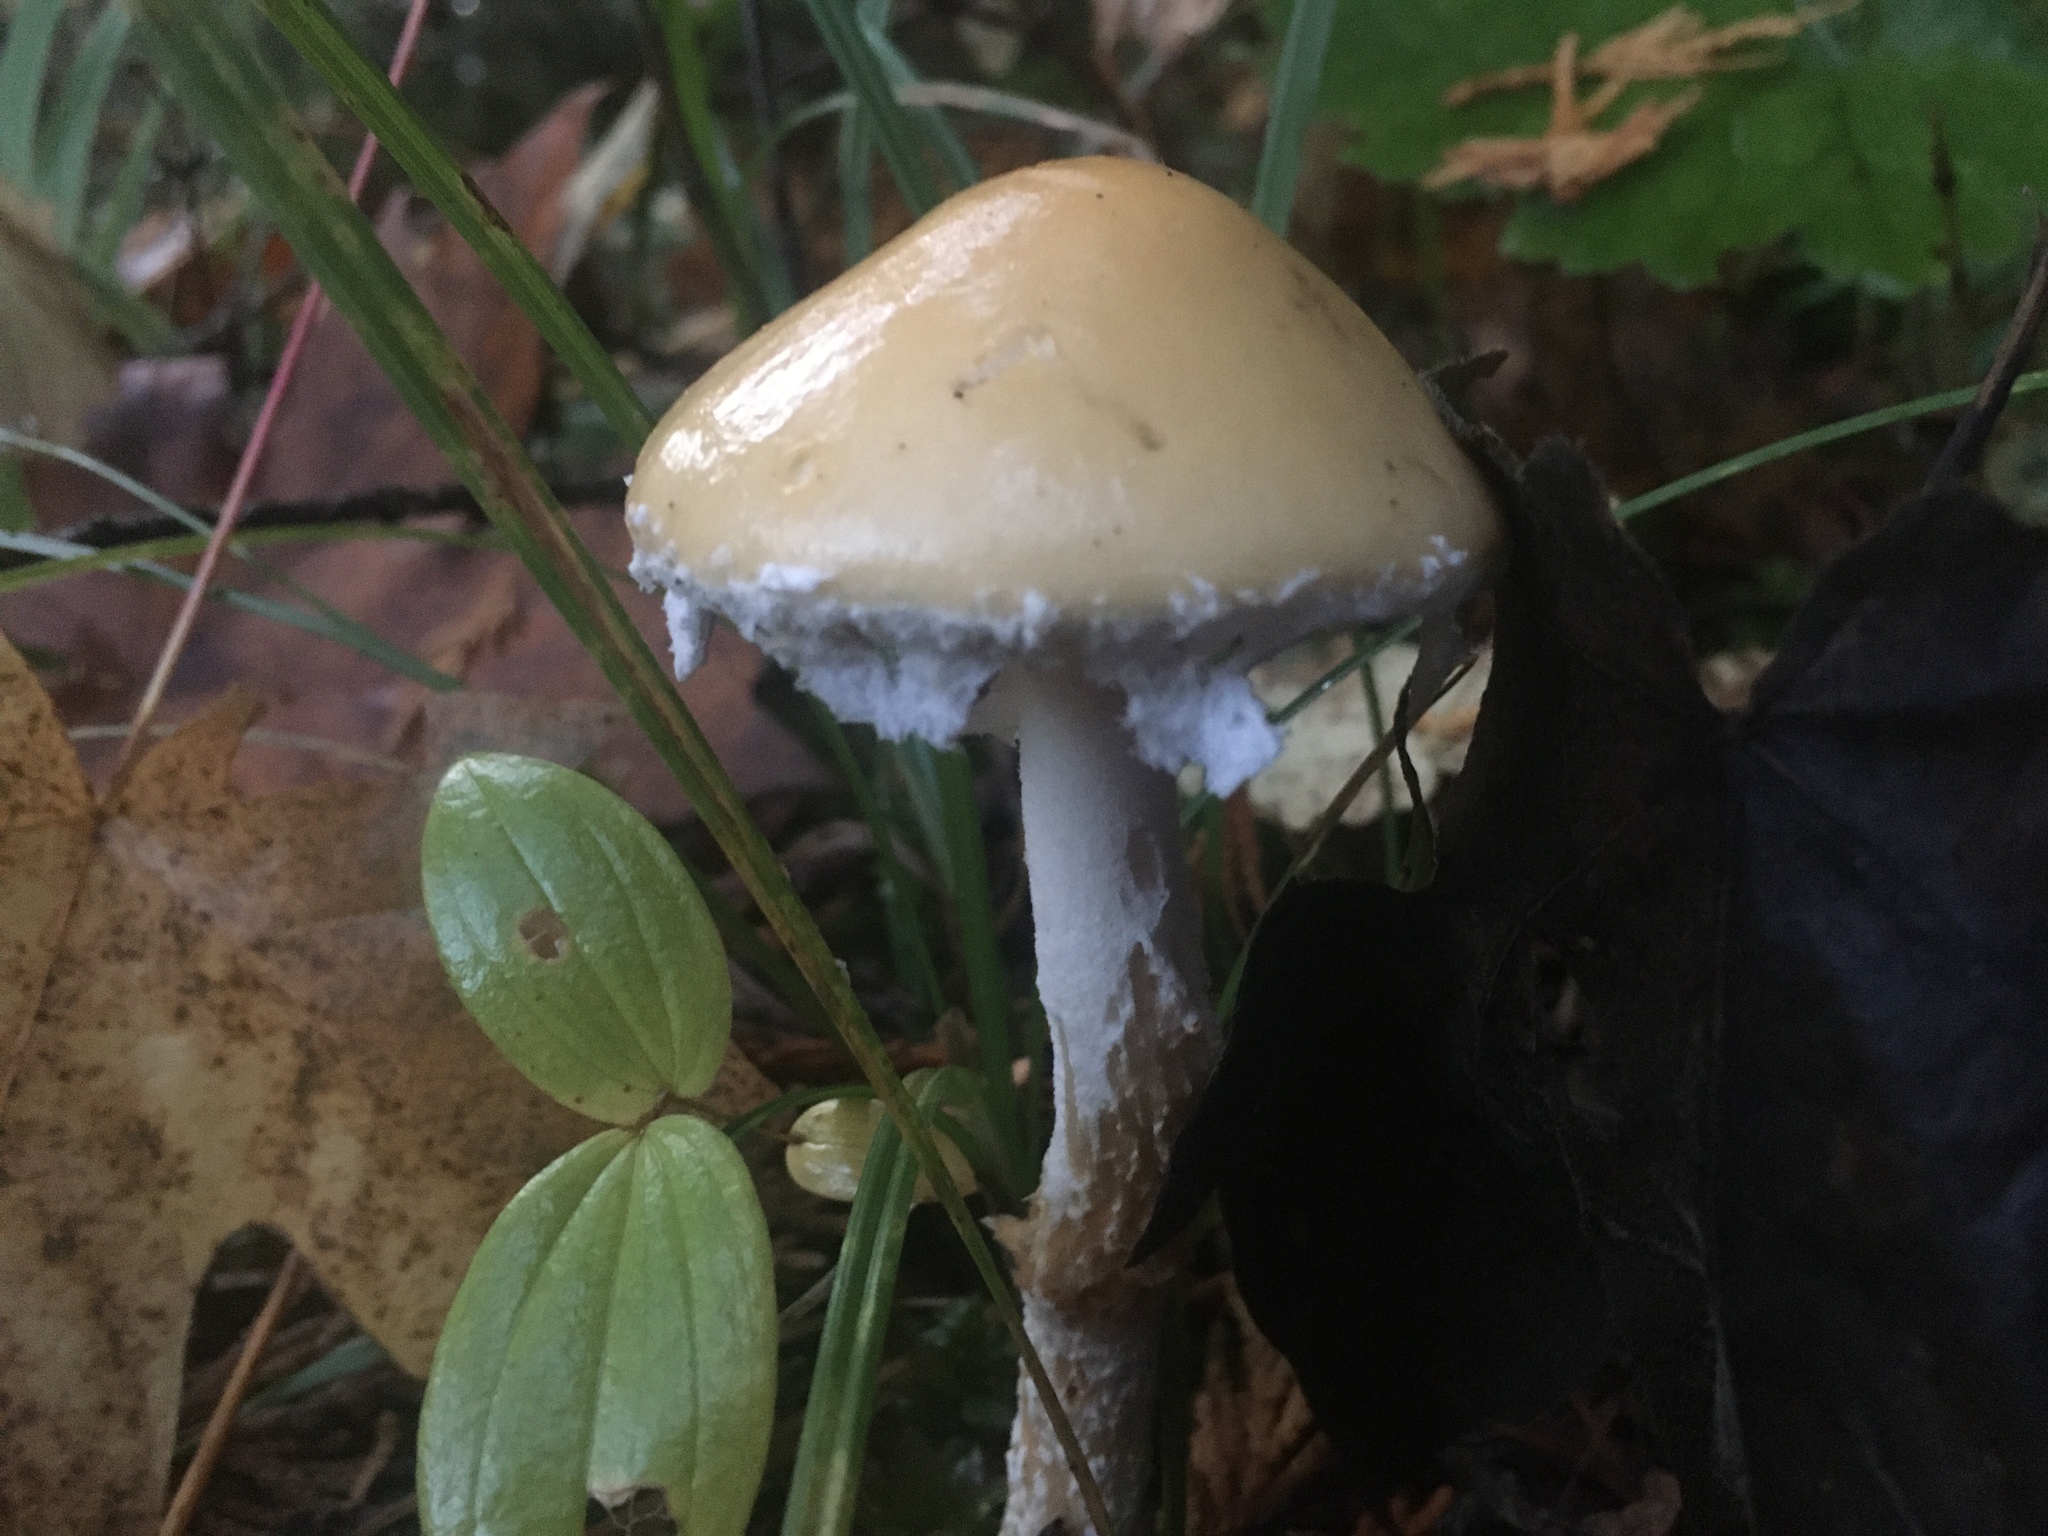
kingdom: Fungi
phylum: Basidiomycota
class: Agaricomycetes
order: Agaricales
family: Strophariaceae
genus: Stropharia
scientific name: Stropharia ambigua
